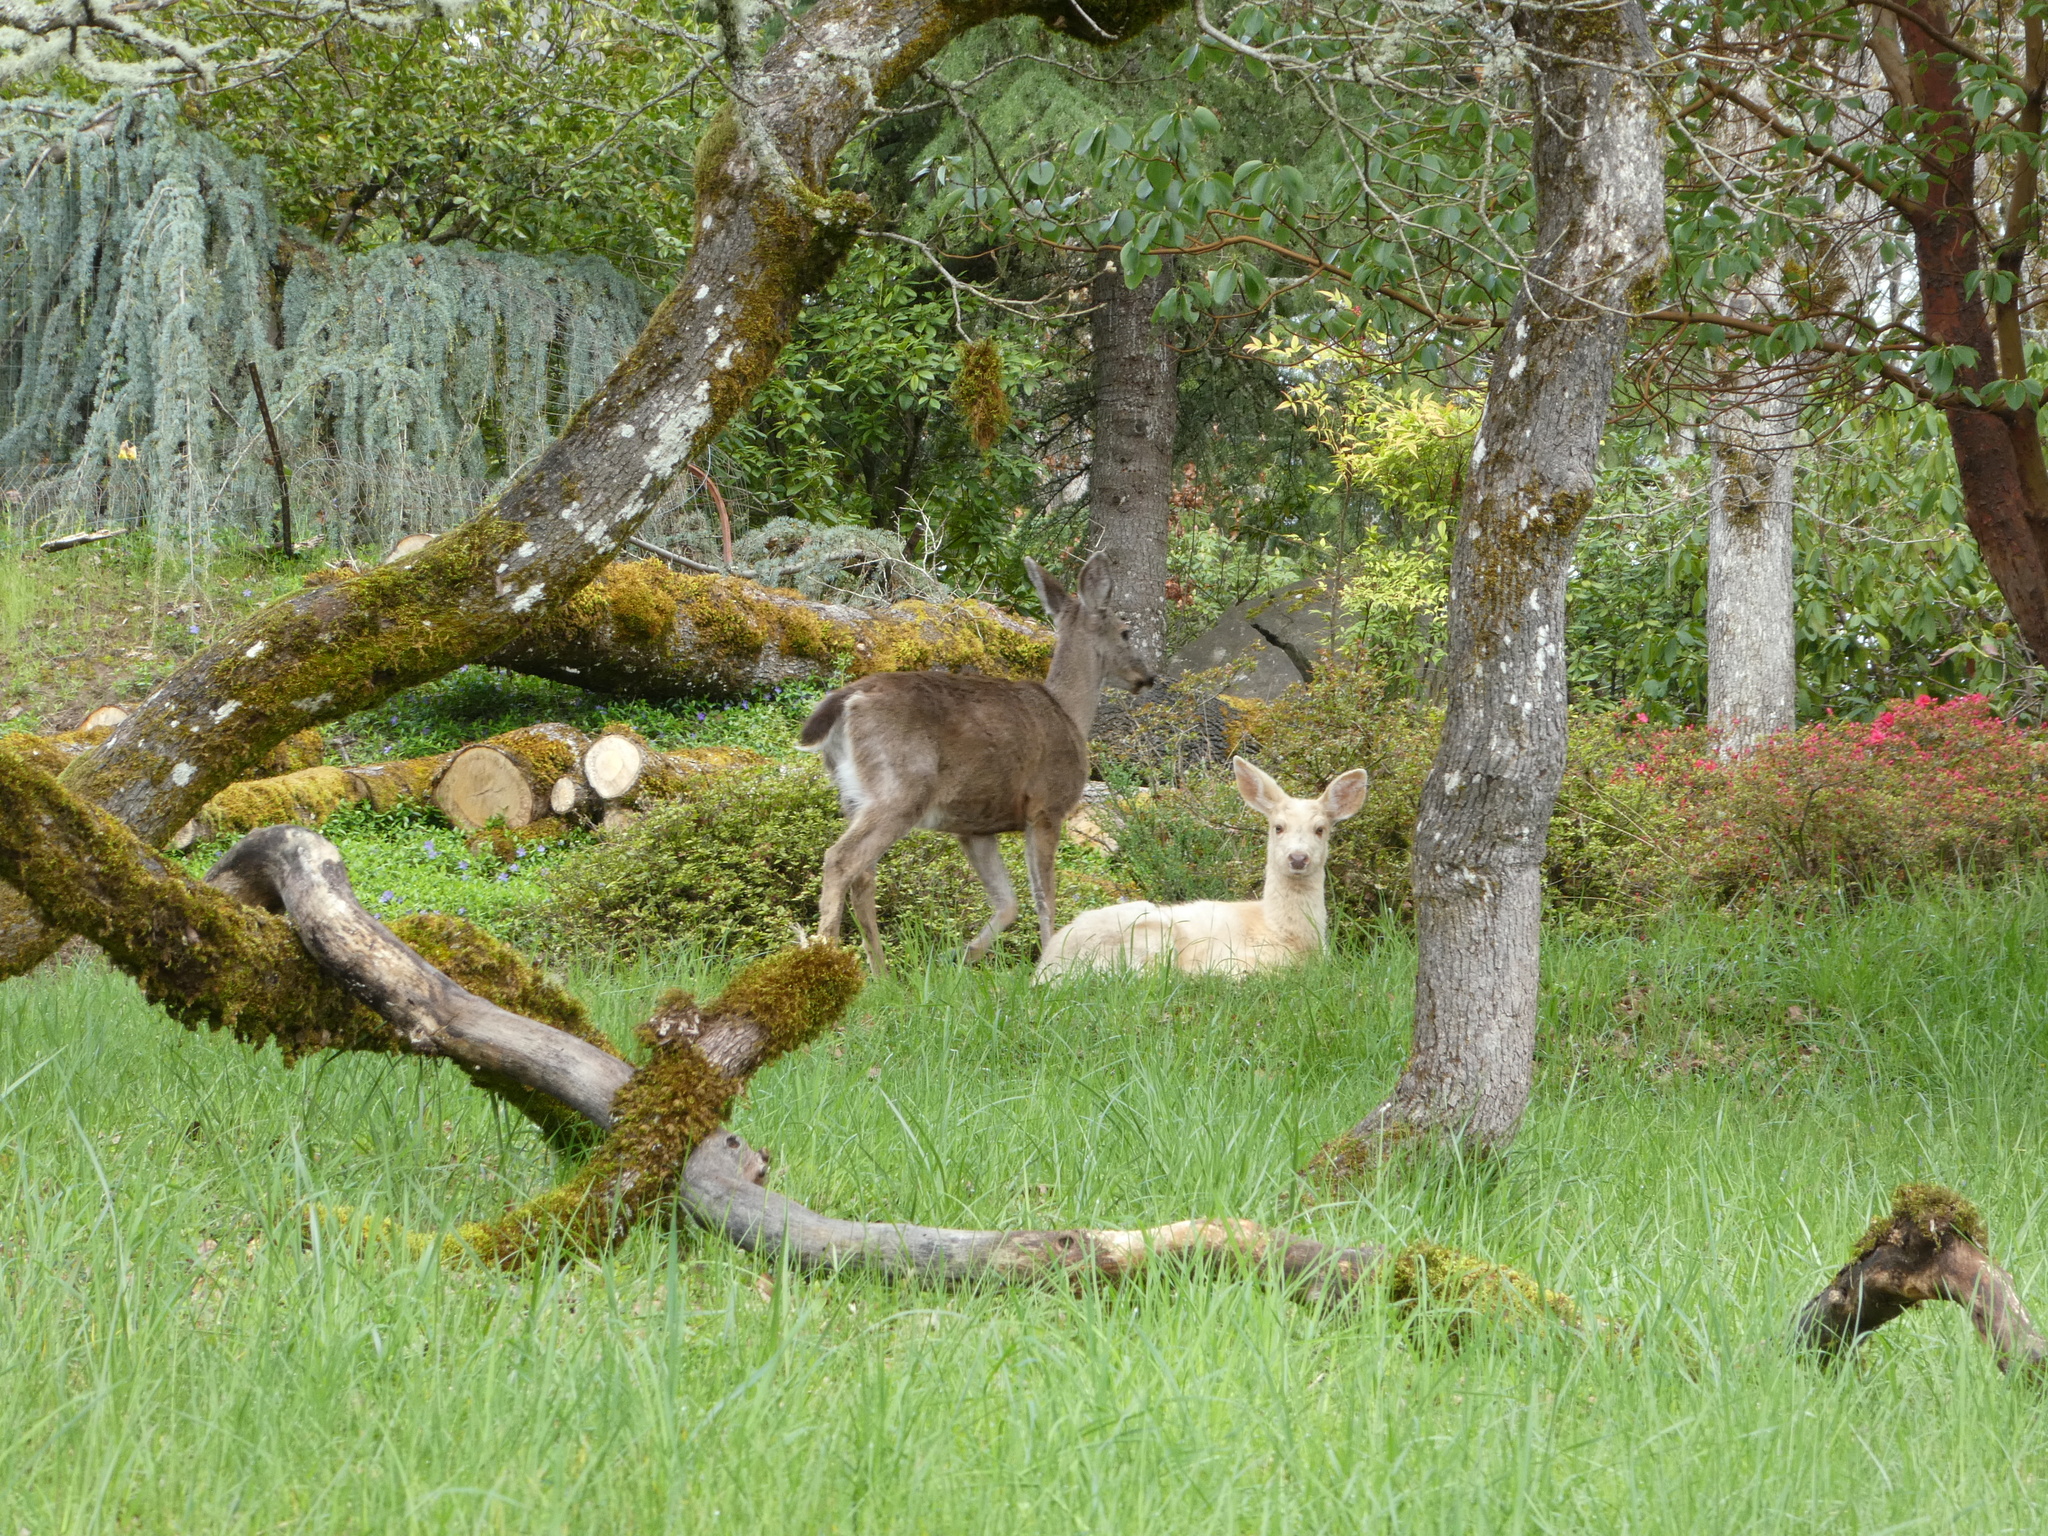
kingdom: Animalia
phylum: Chordata
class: Mammalia
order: Artiodactyla
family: Cervidae
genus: Odocoileus
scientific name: Odocoileus hemionus
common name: Mule deer
